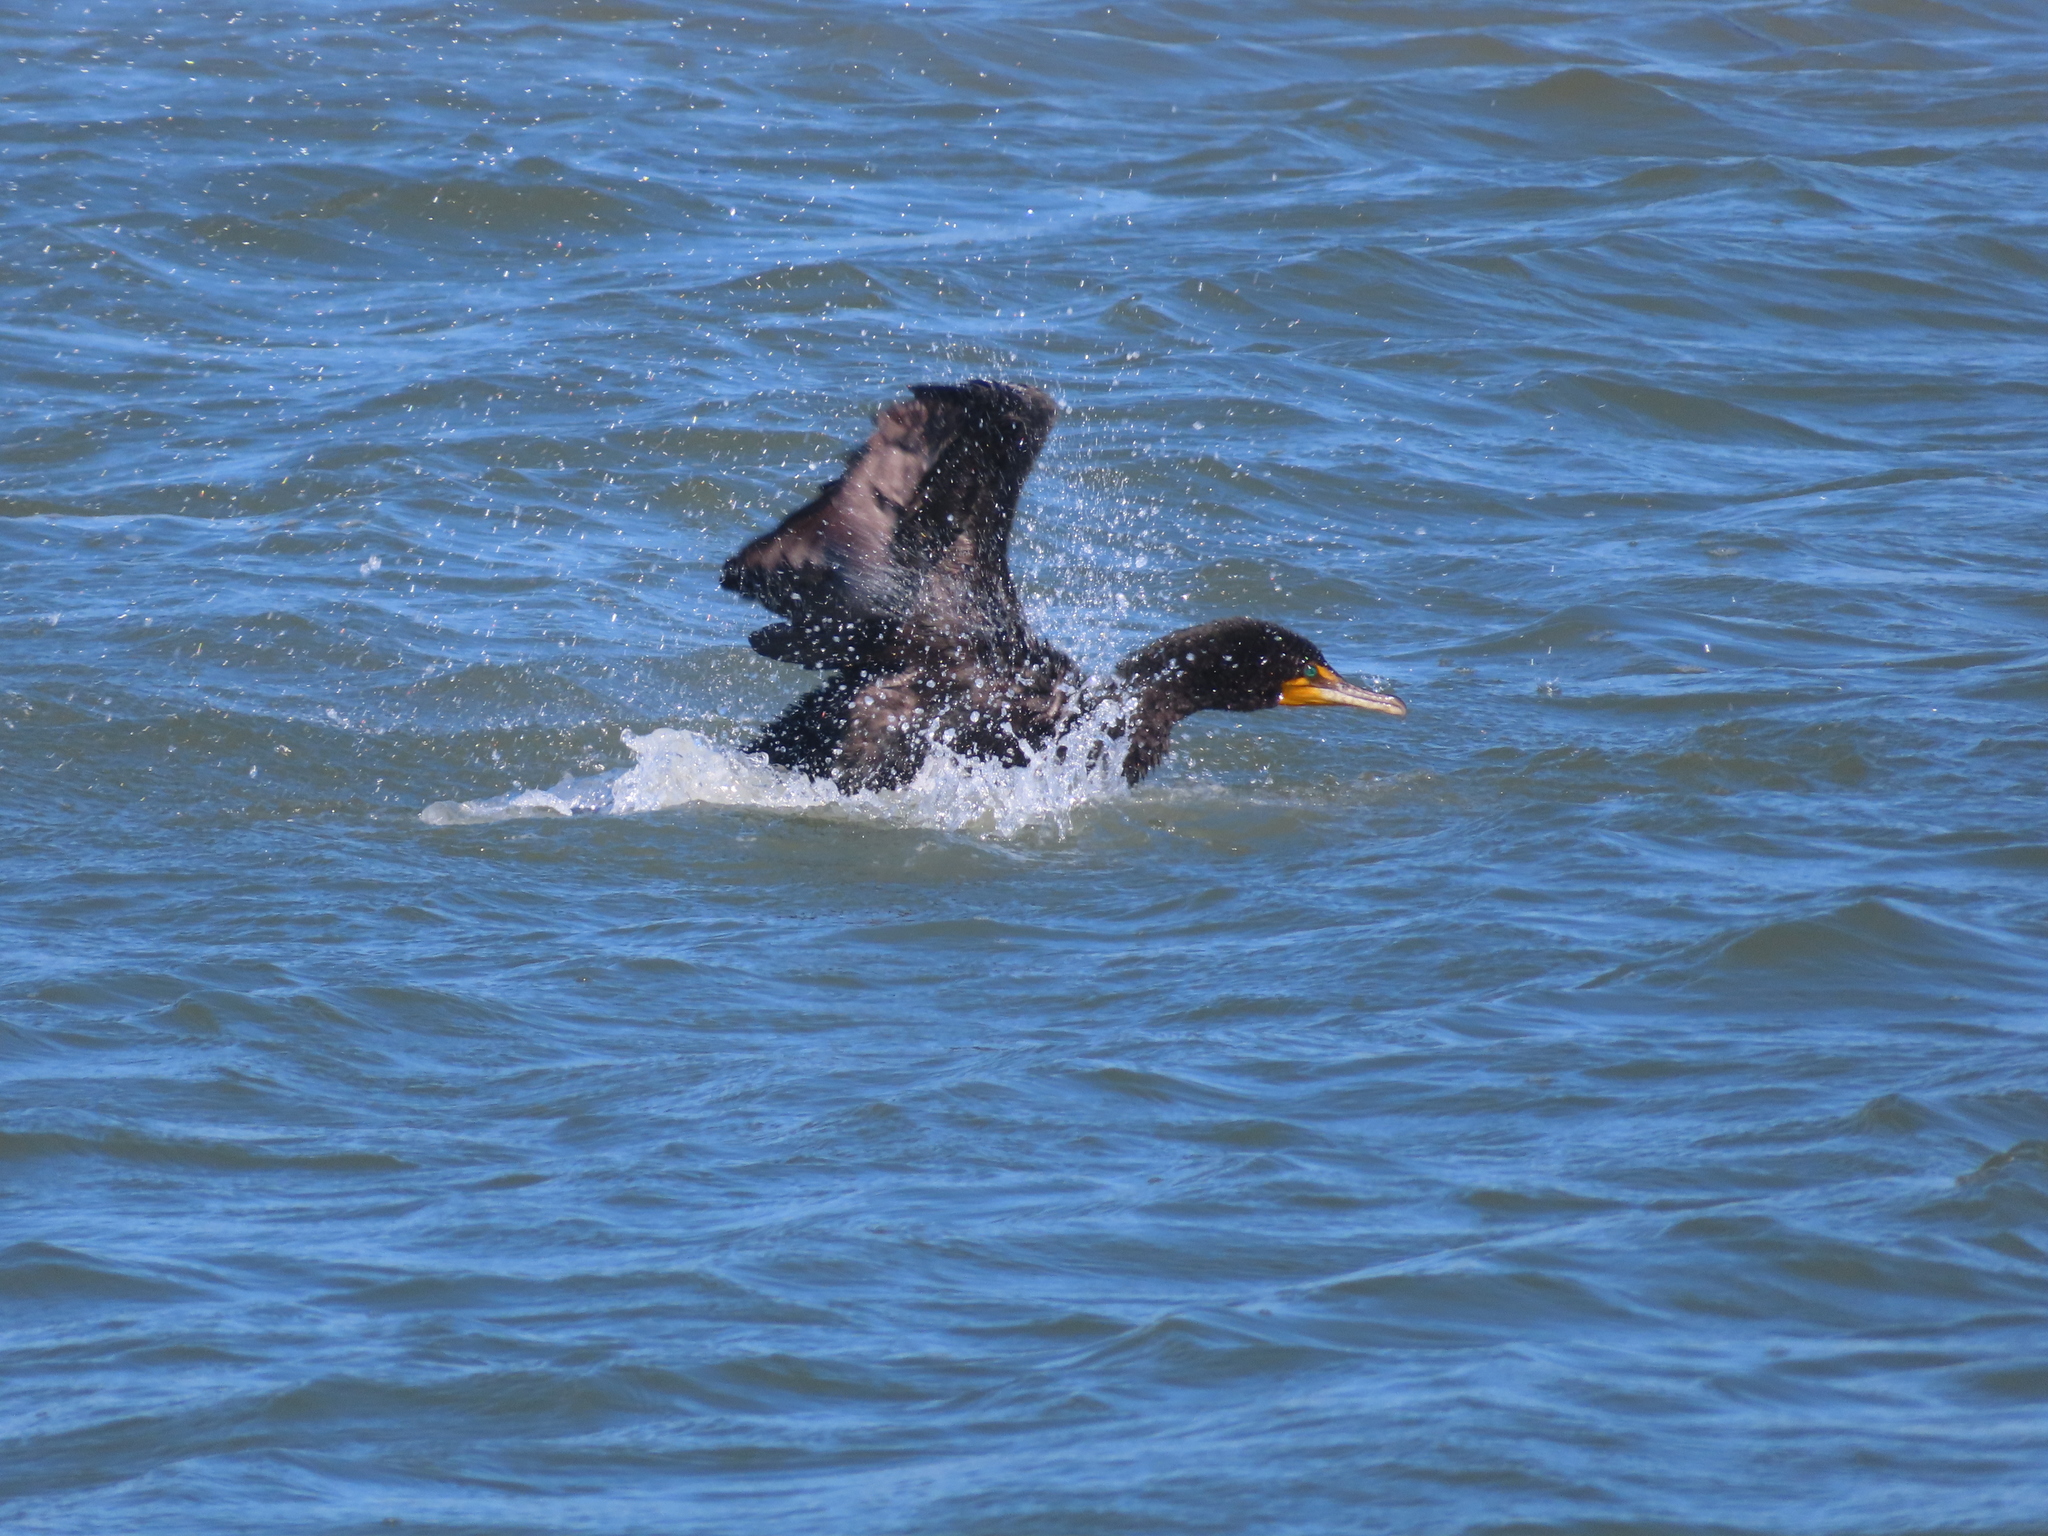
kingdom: Animalia
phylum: Chordata
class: Aves
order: Suliformes
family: Phalacrocoracidae
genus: Phalacrocorax
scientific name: Phalacrocorax auritus
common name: Double-crested cormorant
